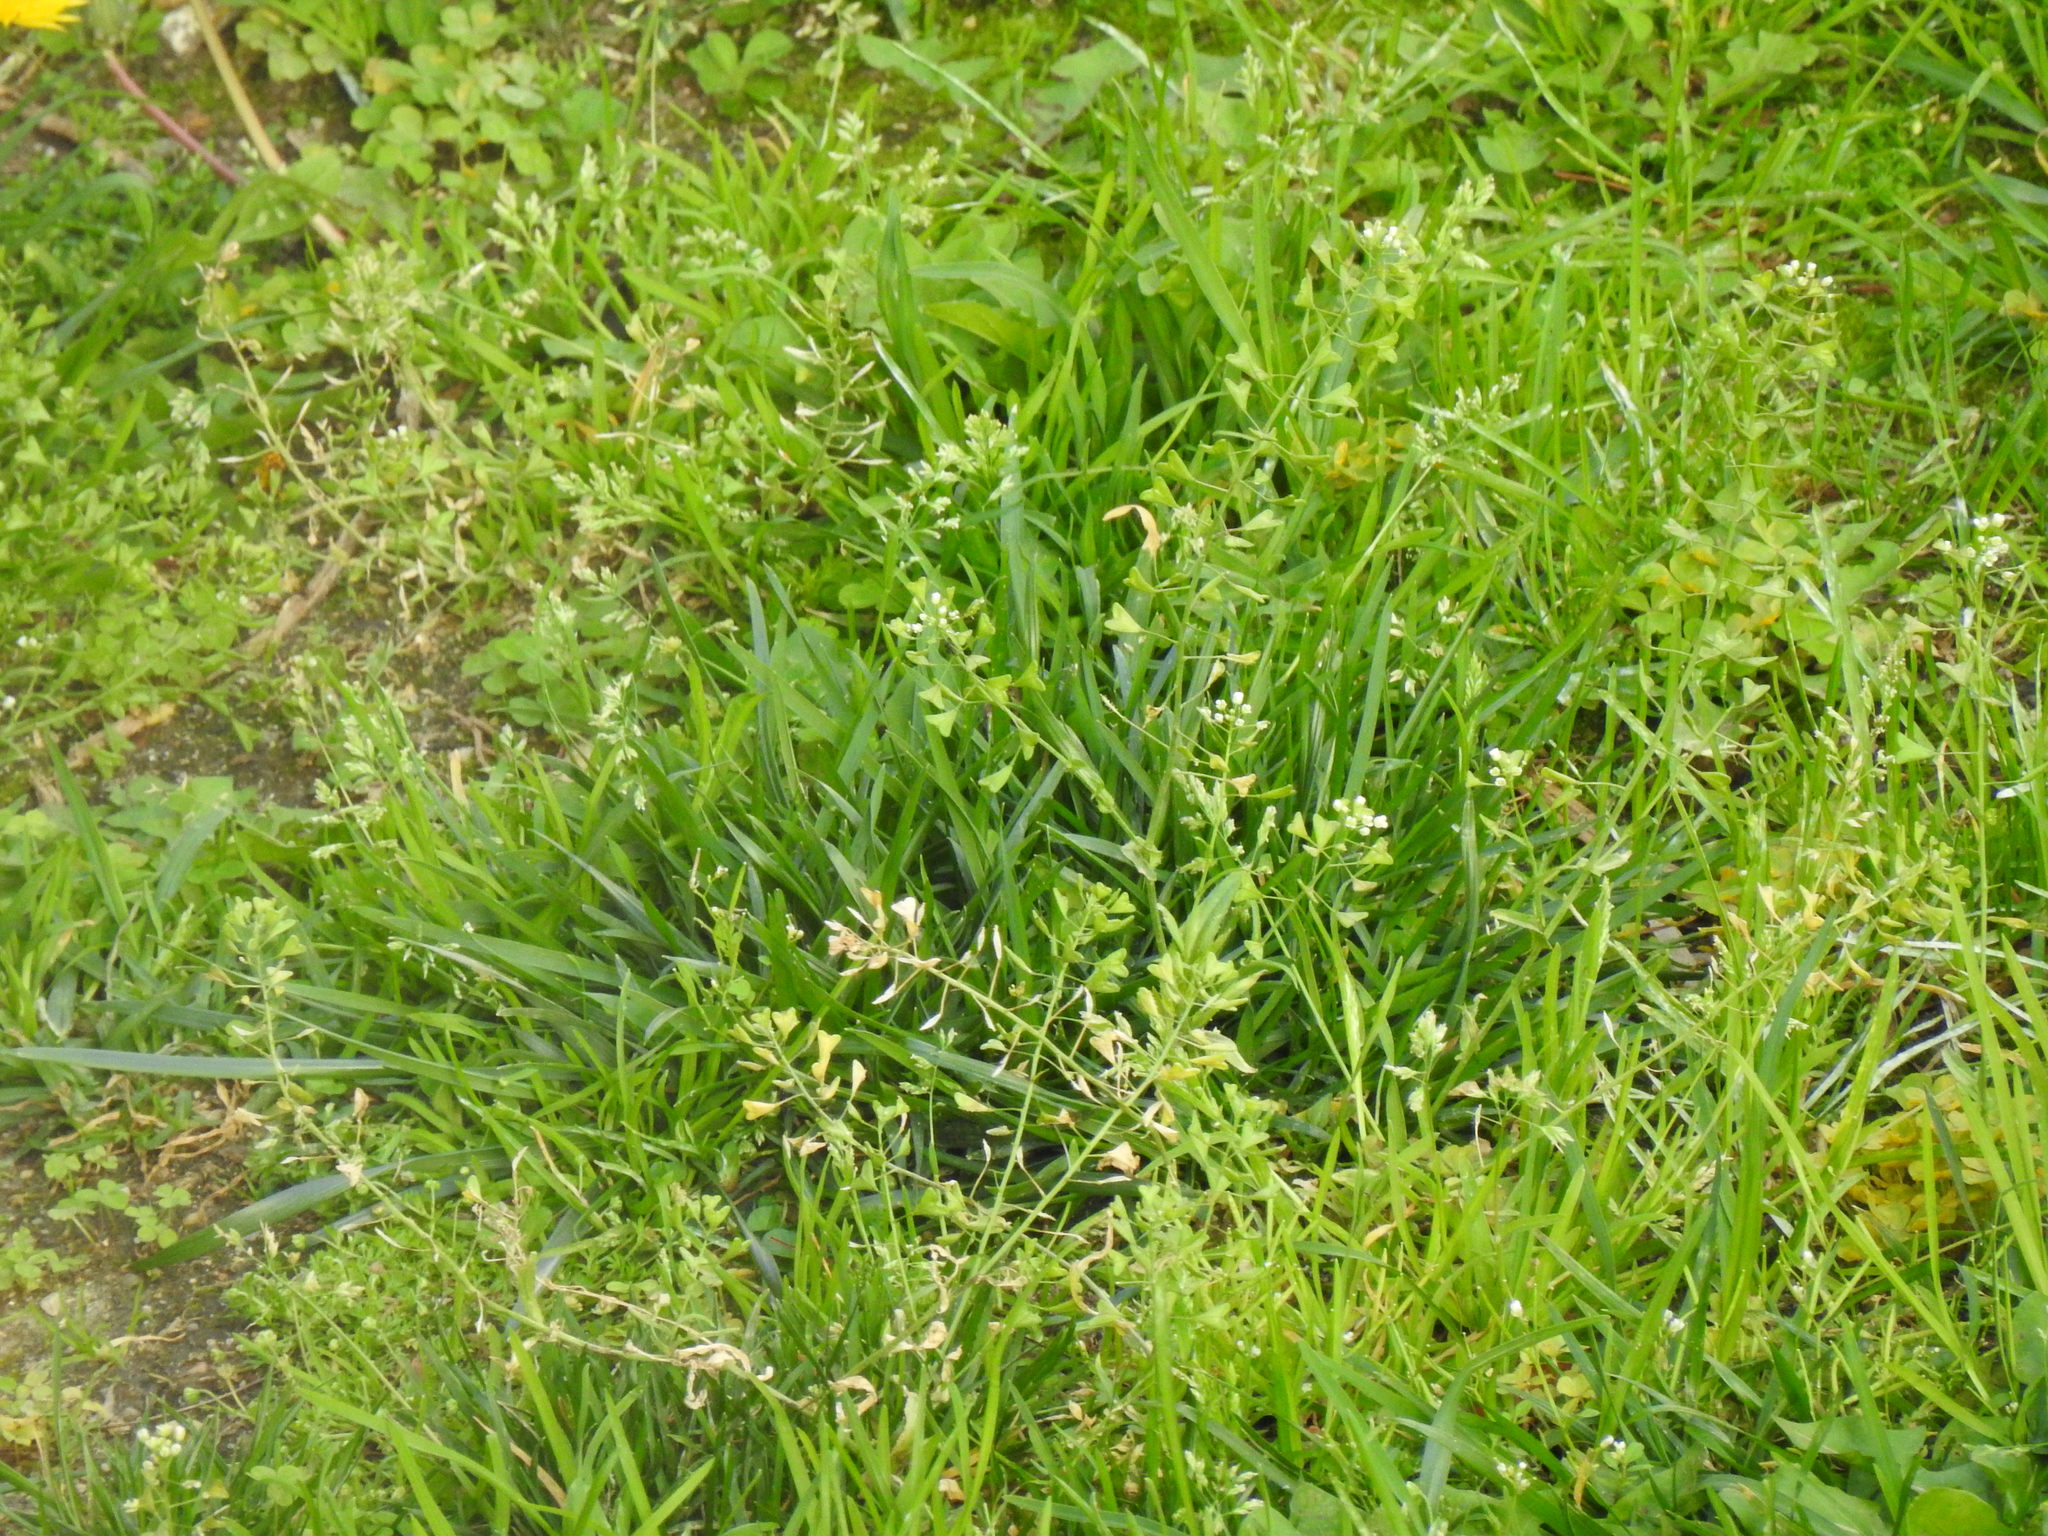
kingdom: Plantae
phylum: Tracheophyta
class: Magnoliopsida
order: Brassicales
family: Brassicaceae
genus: Capsella
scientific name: Capsella bursa-pastoris
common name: Shepherd's purse
